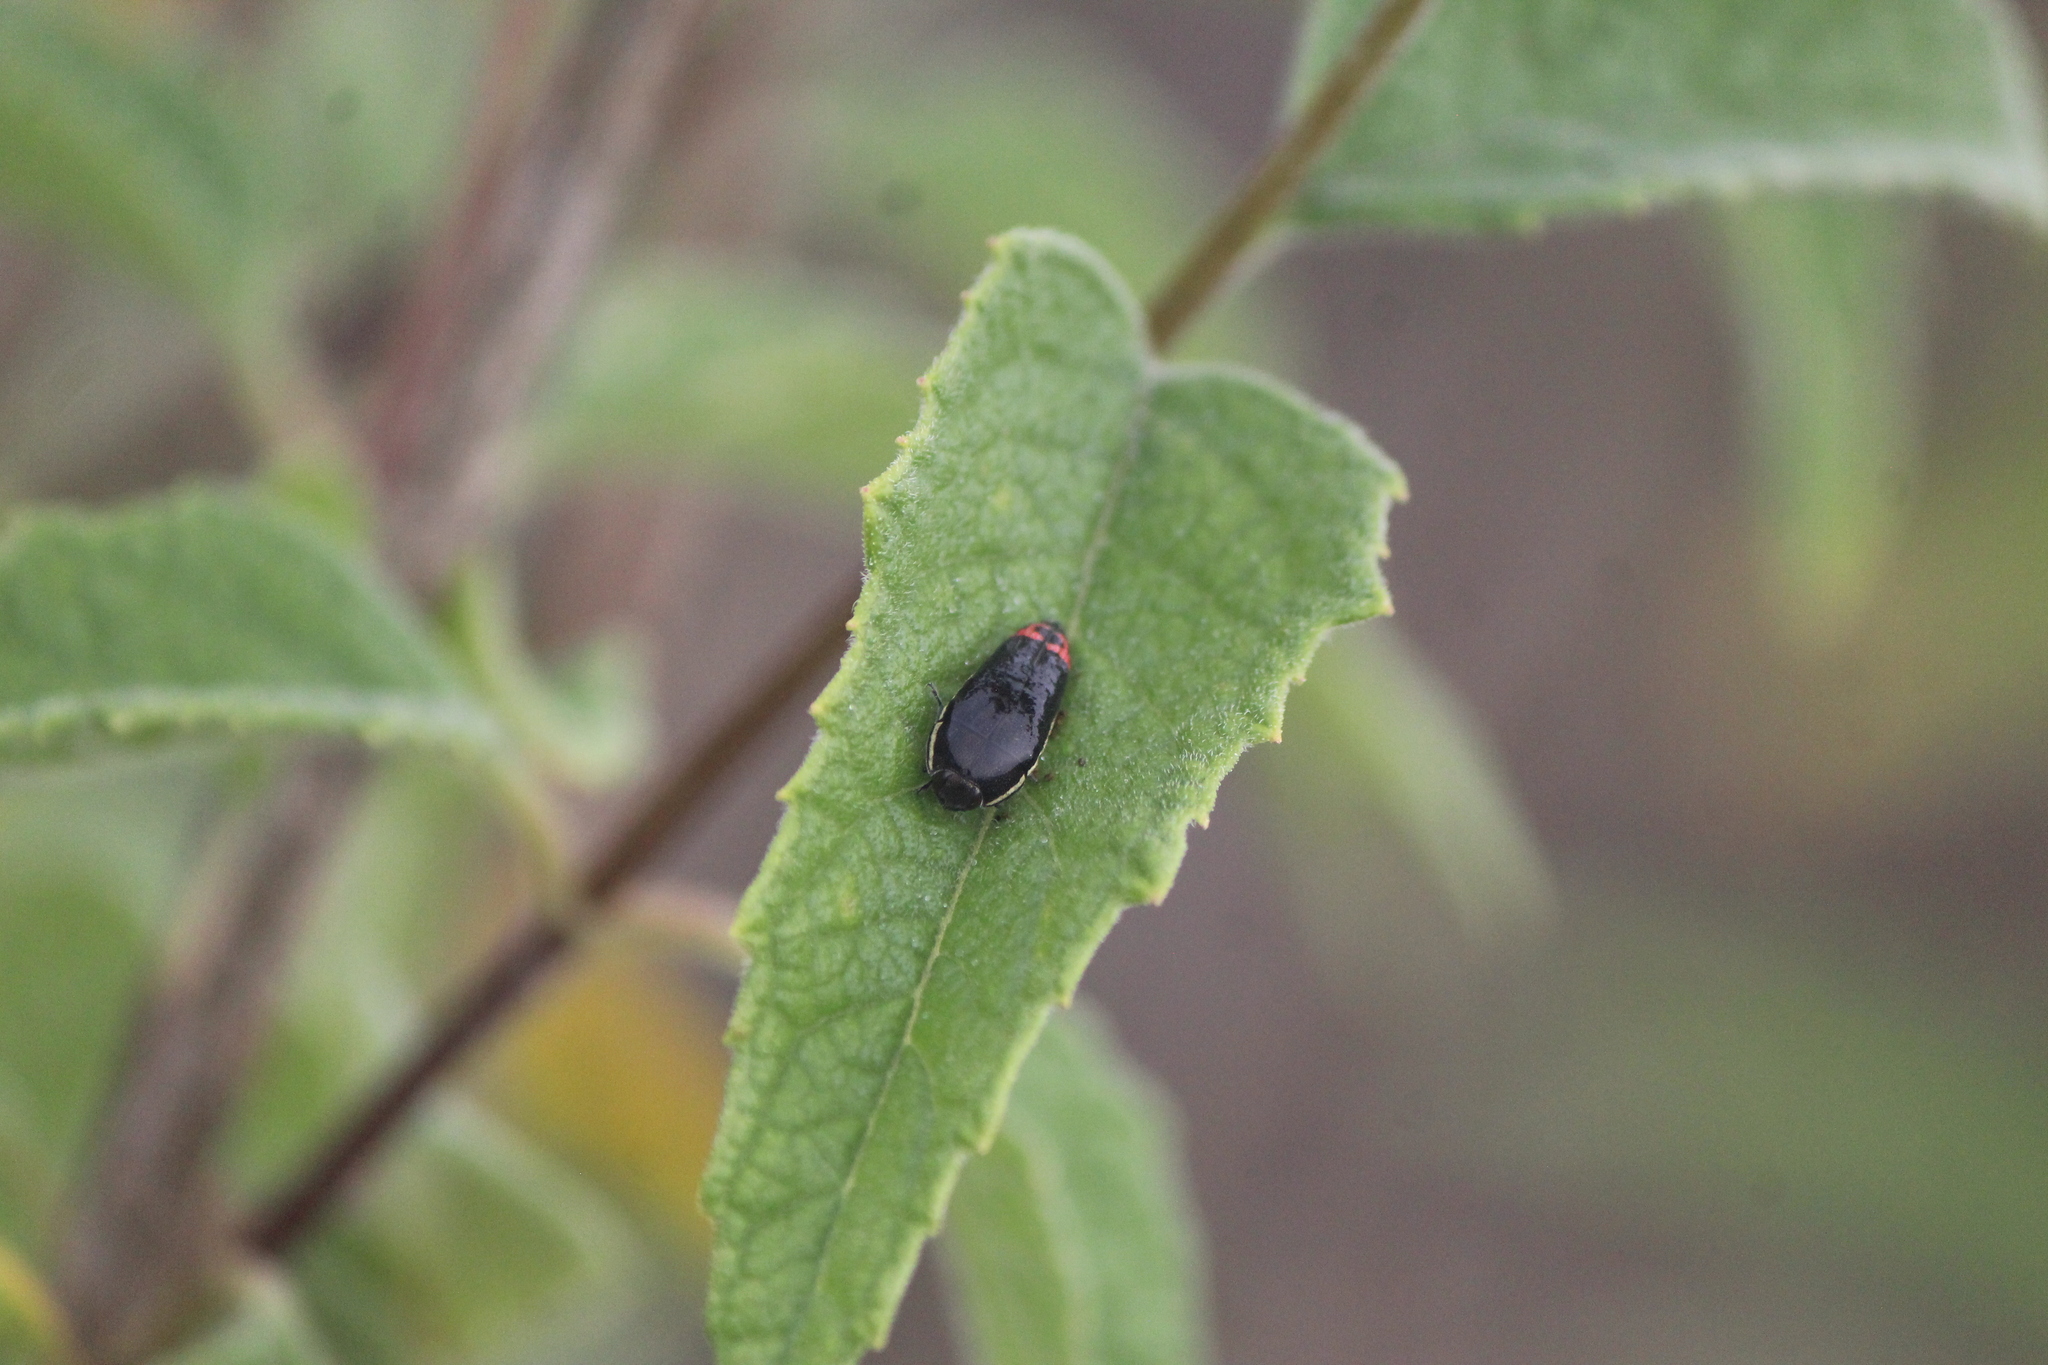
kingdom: Animalia
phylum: Arthropoda
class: Insecta
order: Coleoptera
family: Buprestidae
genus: Acmaeodera
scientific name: Acmaeodera flavomarginata
